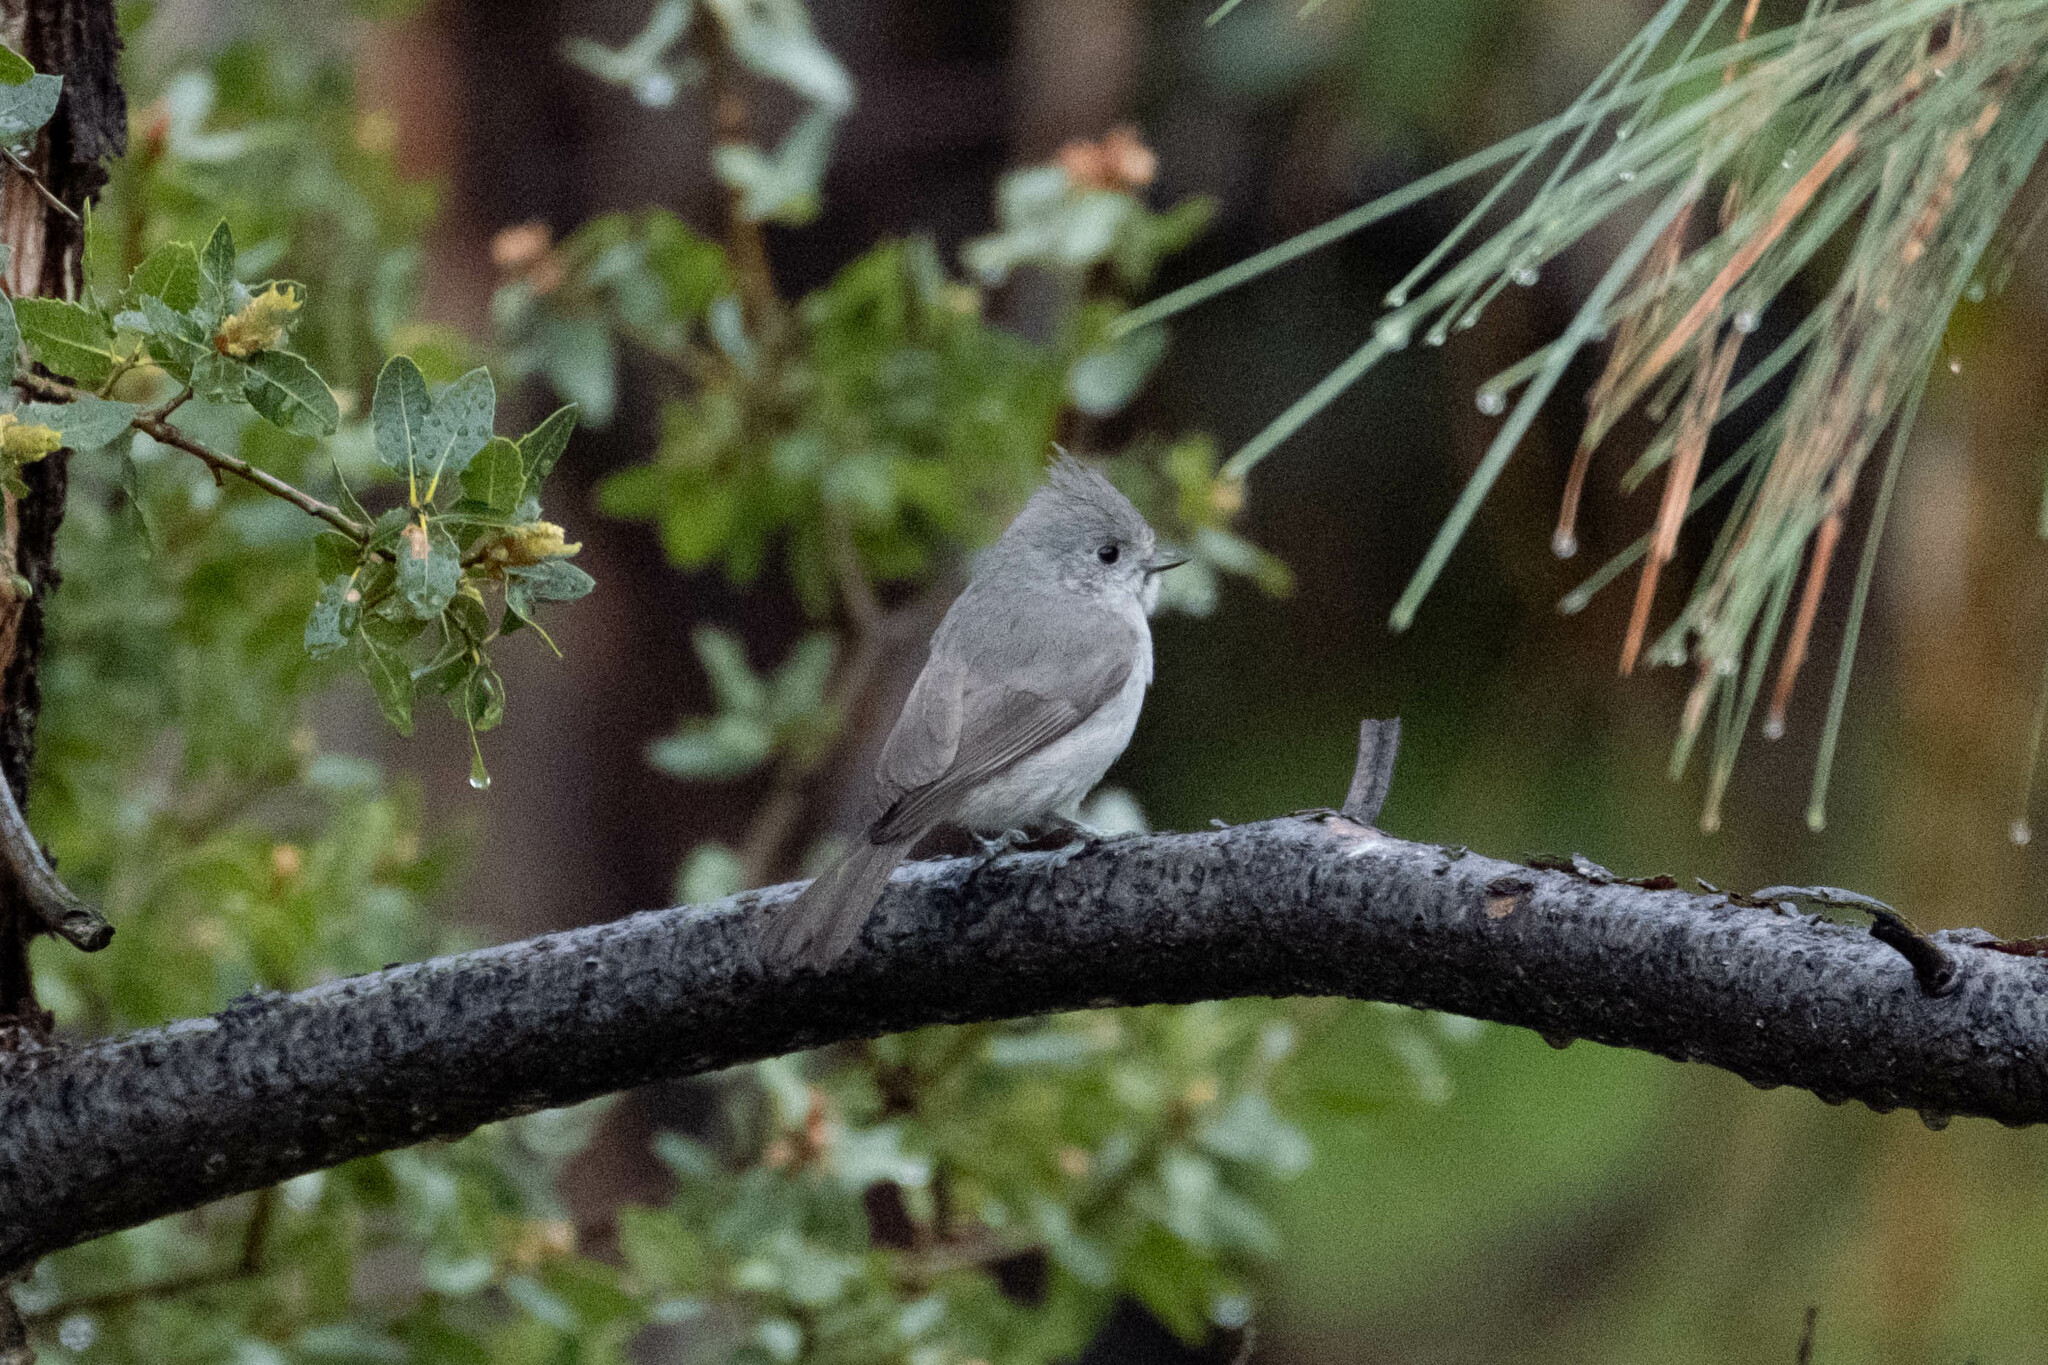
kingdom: Animalia
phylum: Chordata
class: Aves
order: Passeriformes
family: Paridae
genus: Baeolophus
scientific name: Baeolophus inornatus
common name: Oak titmouse
